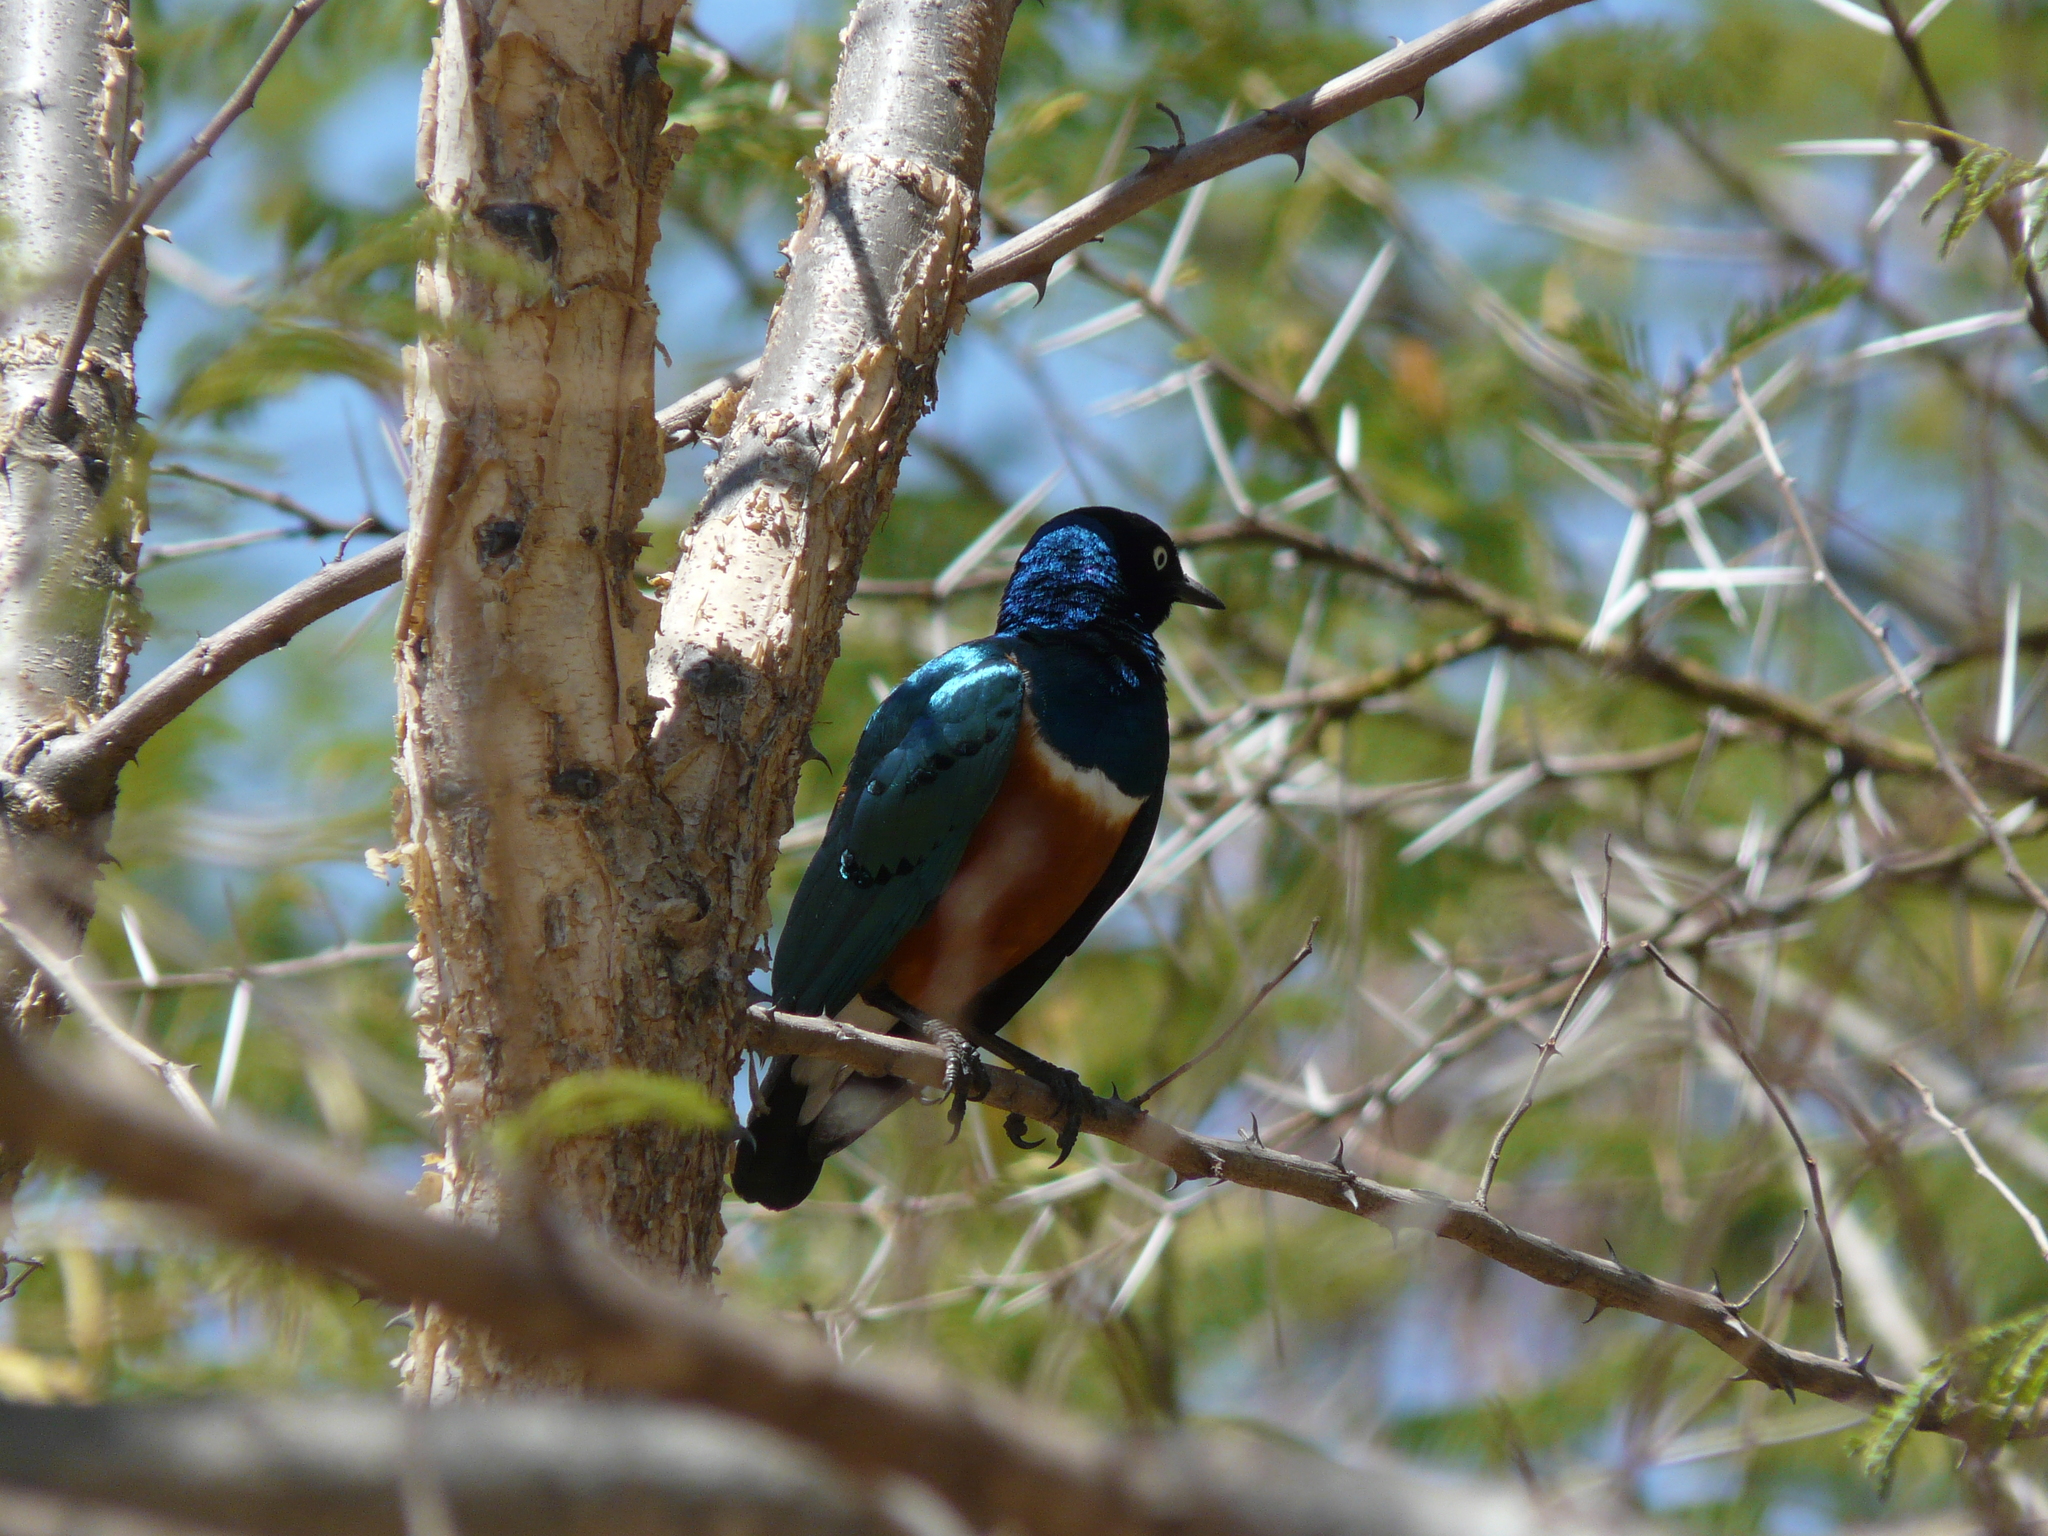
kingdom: Animalia
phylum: Chordata
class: Aves
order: Passeriformes
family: Sturnidae
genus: Lamprotornis
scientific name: Lamprotornis superbus
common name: Superb starling
